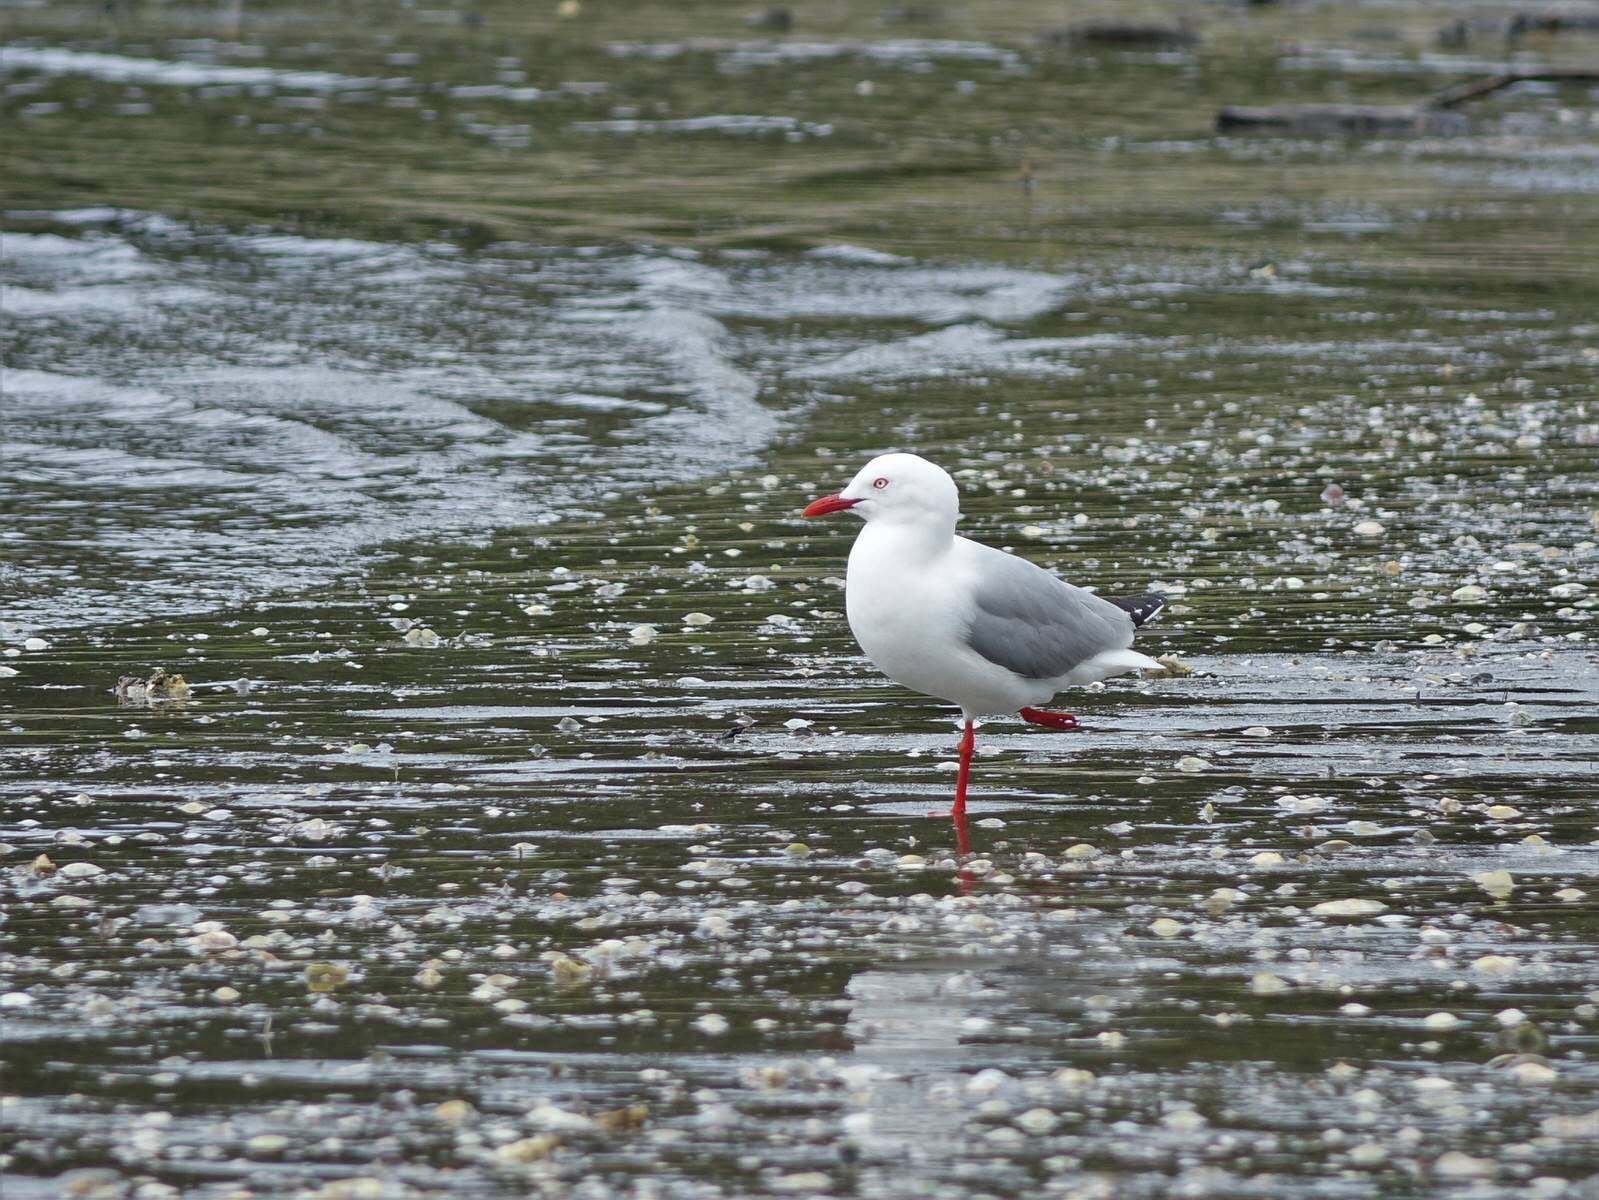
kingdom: Animalia
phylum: Chordata
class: Aves
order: Charadriiformes
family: Laridae
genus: Chroicocephalus
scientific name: Chroicocephalus novaehollandiae
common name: Silver gull
